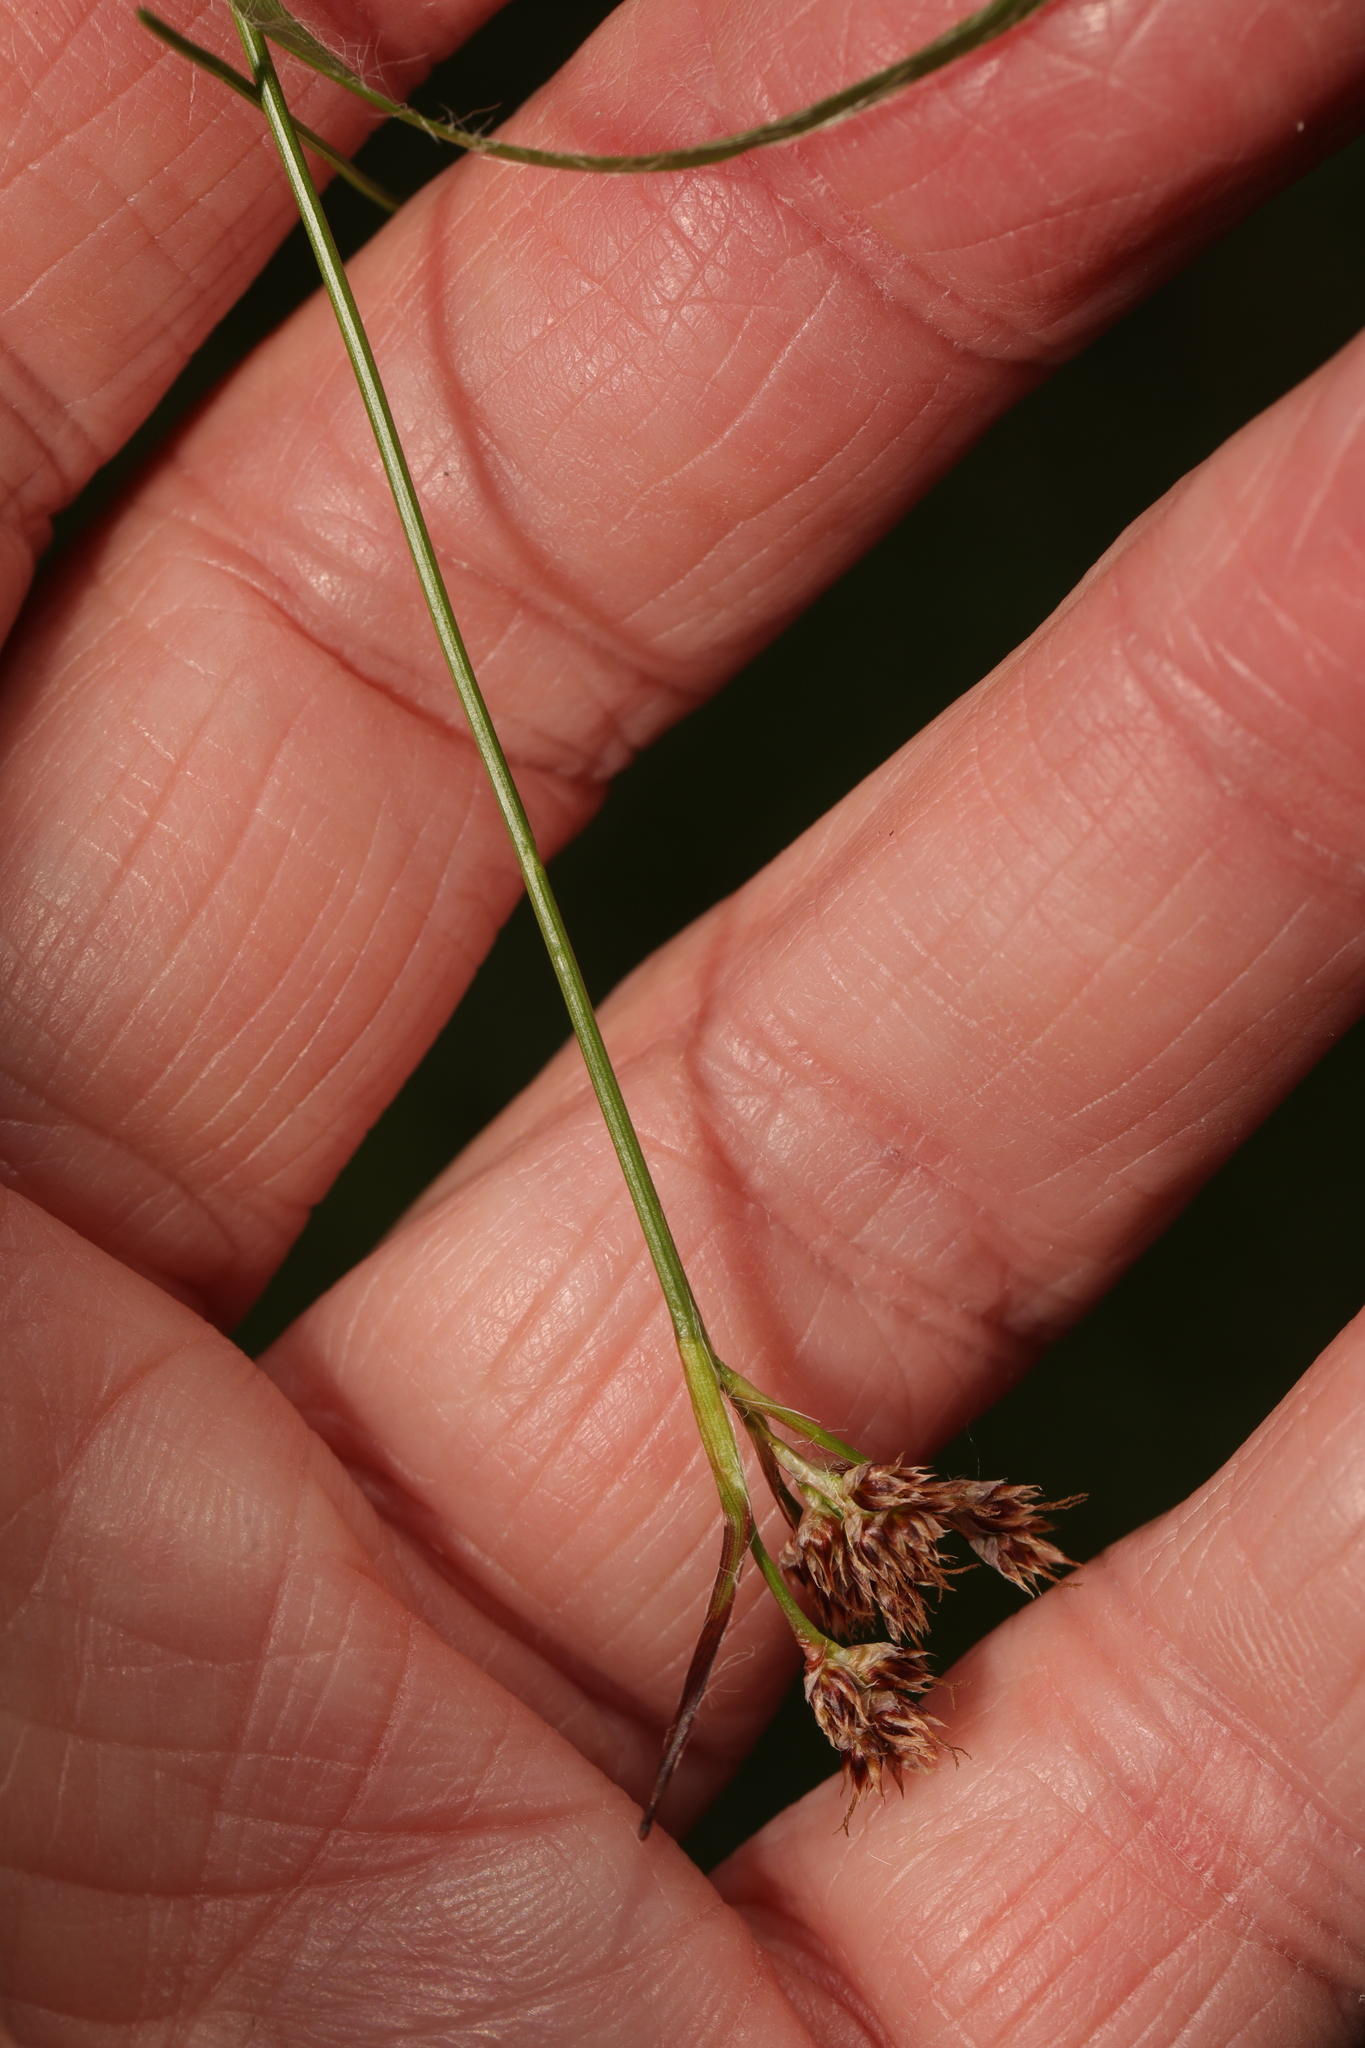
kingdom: Plantae
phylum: Tracheophyta
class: Liliopsida
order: Poales
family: Juncaceae
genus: Luzula
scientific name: Luzula campestris
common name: Field wood-rush
